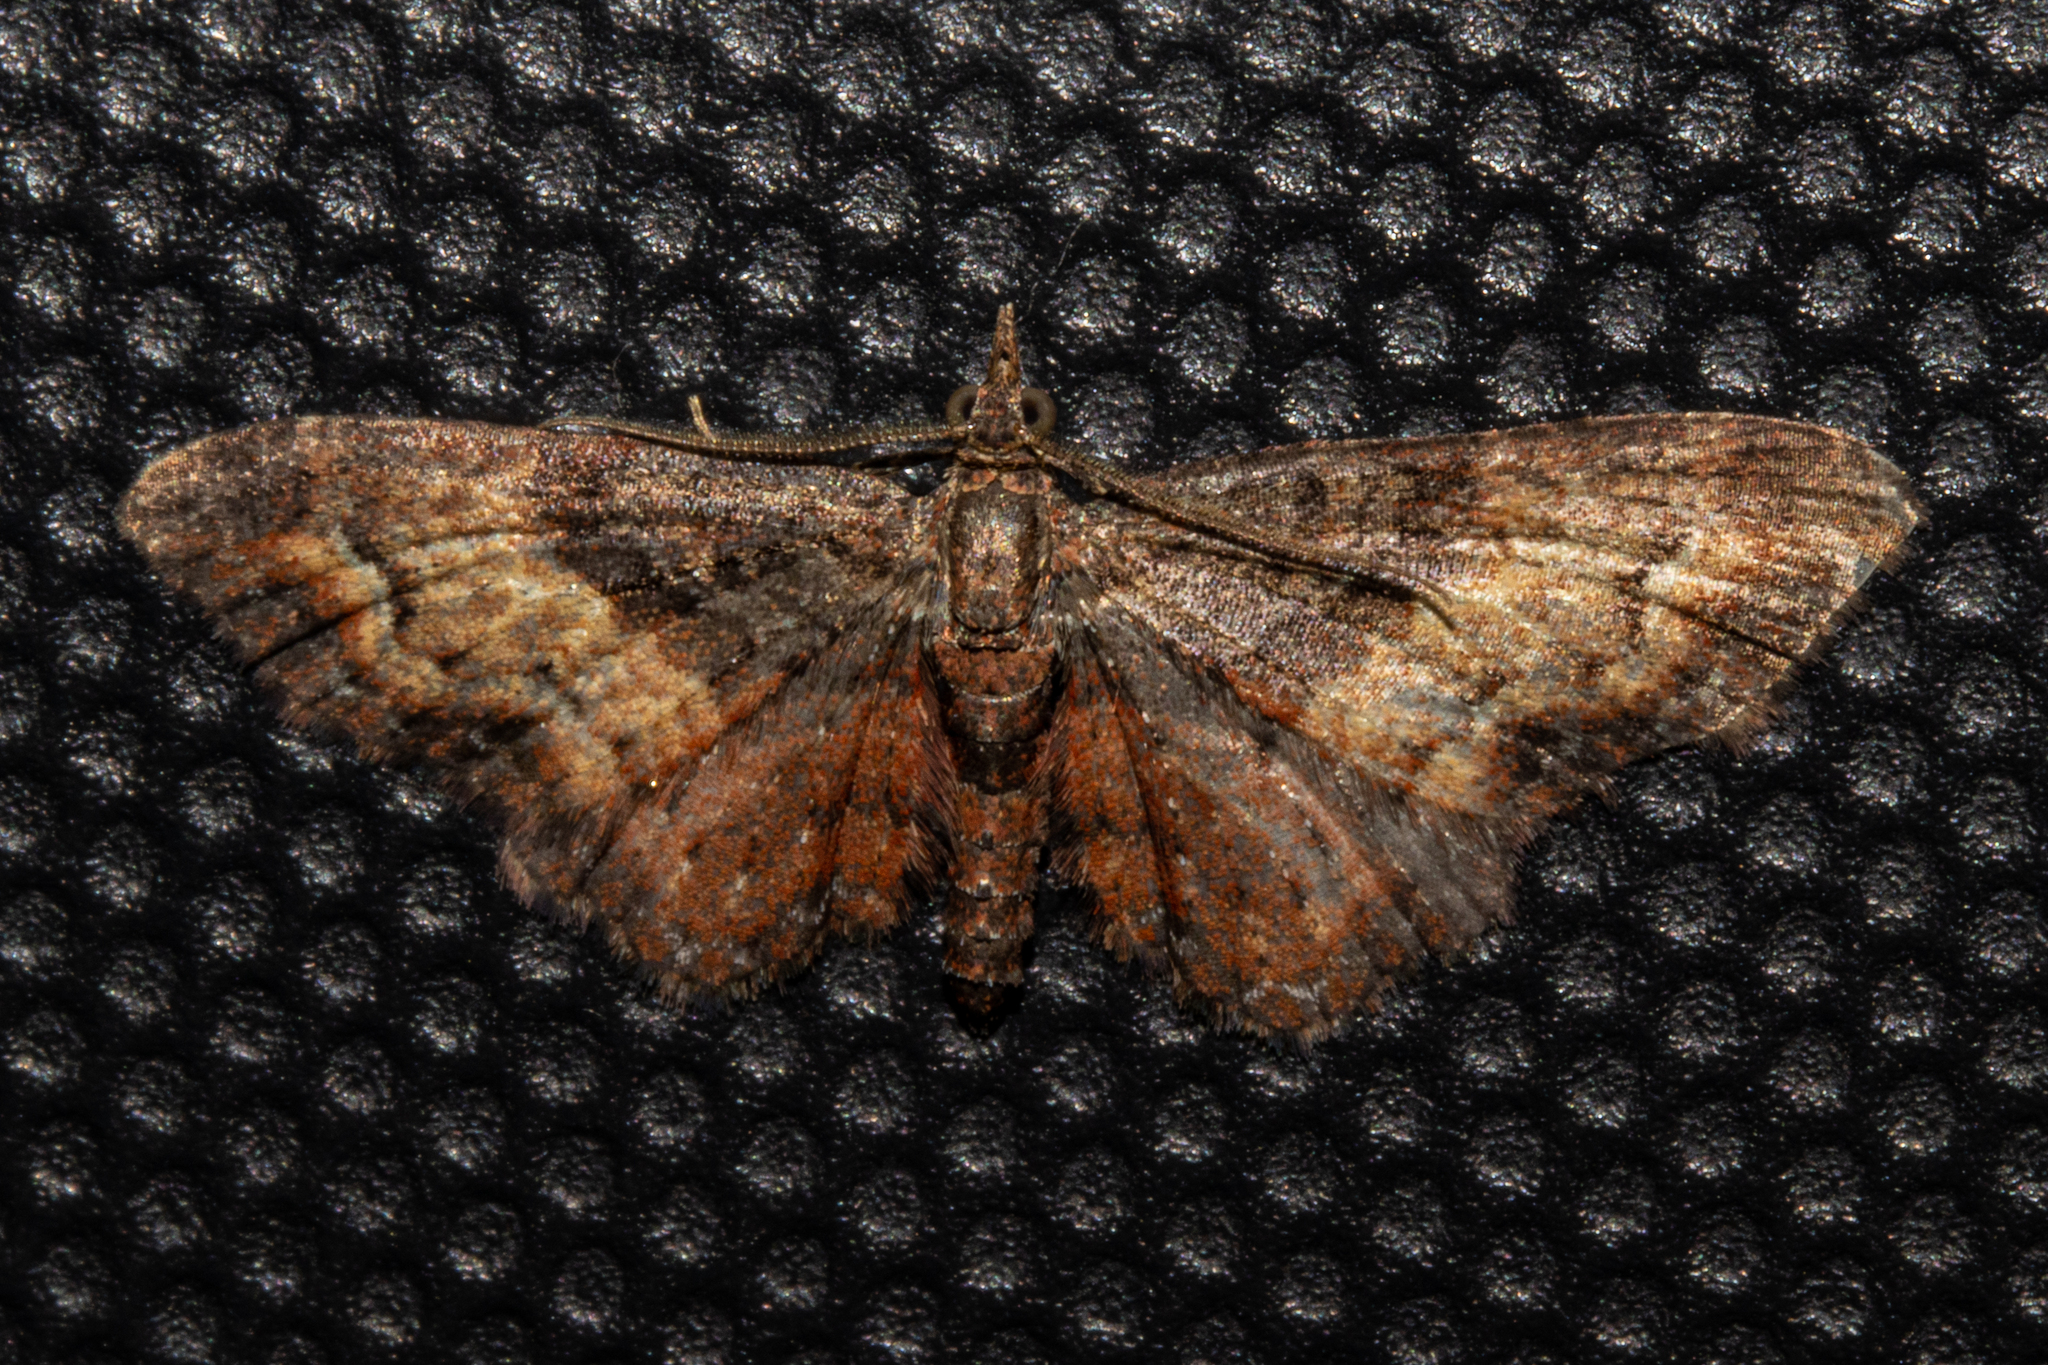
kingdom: Animalia
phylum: Arthropoda
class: Insecta
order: Lepidoptera
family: Geometridae
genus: Pasiphila
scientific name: Pasiphila lunata
